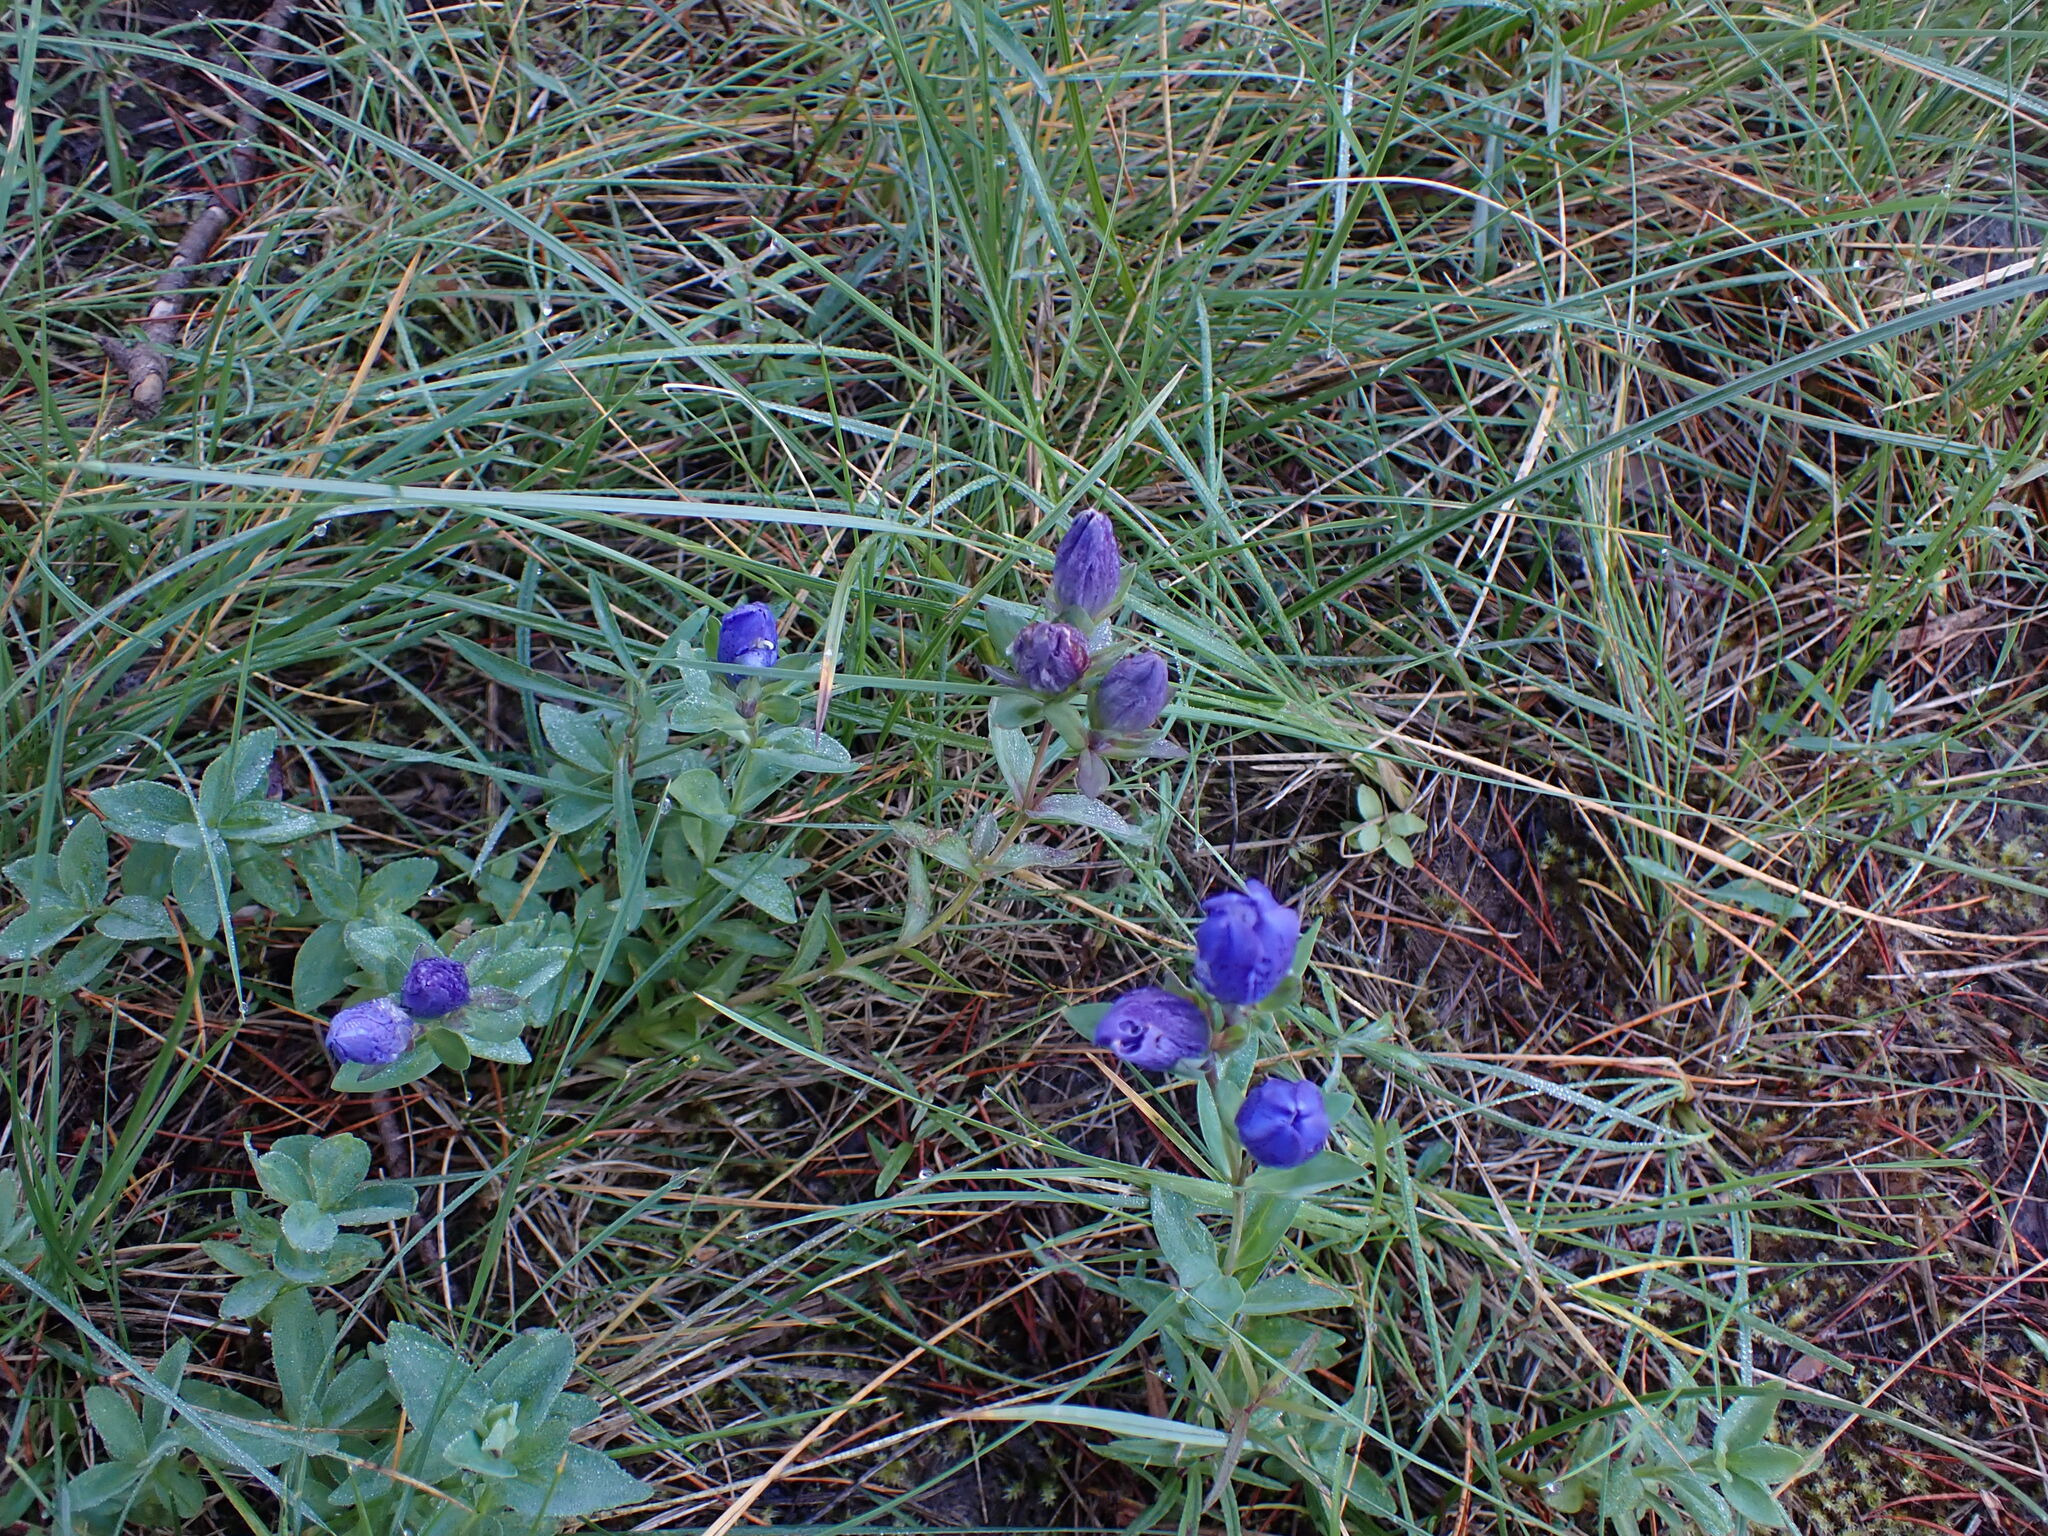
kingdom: Plantae
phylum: Tracheophyta
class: Magnoliopsida
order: Gentianales
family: Gentianaceae
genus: Gentiana
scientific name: Gentiana sceptrum
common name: Pacific gentian
